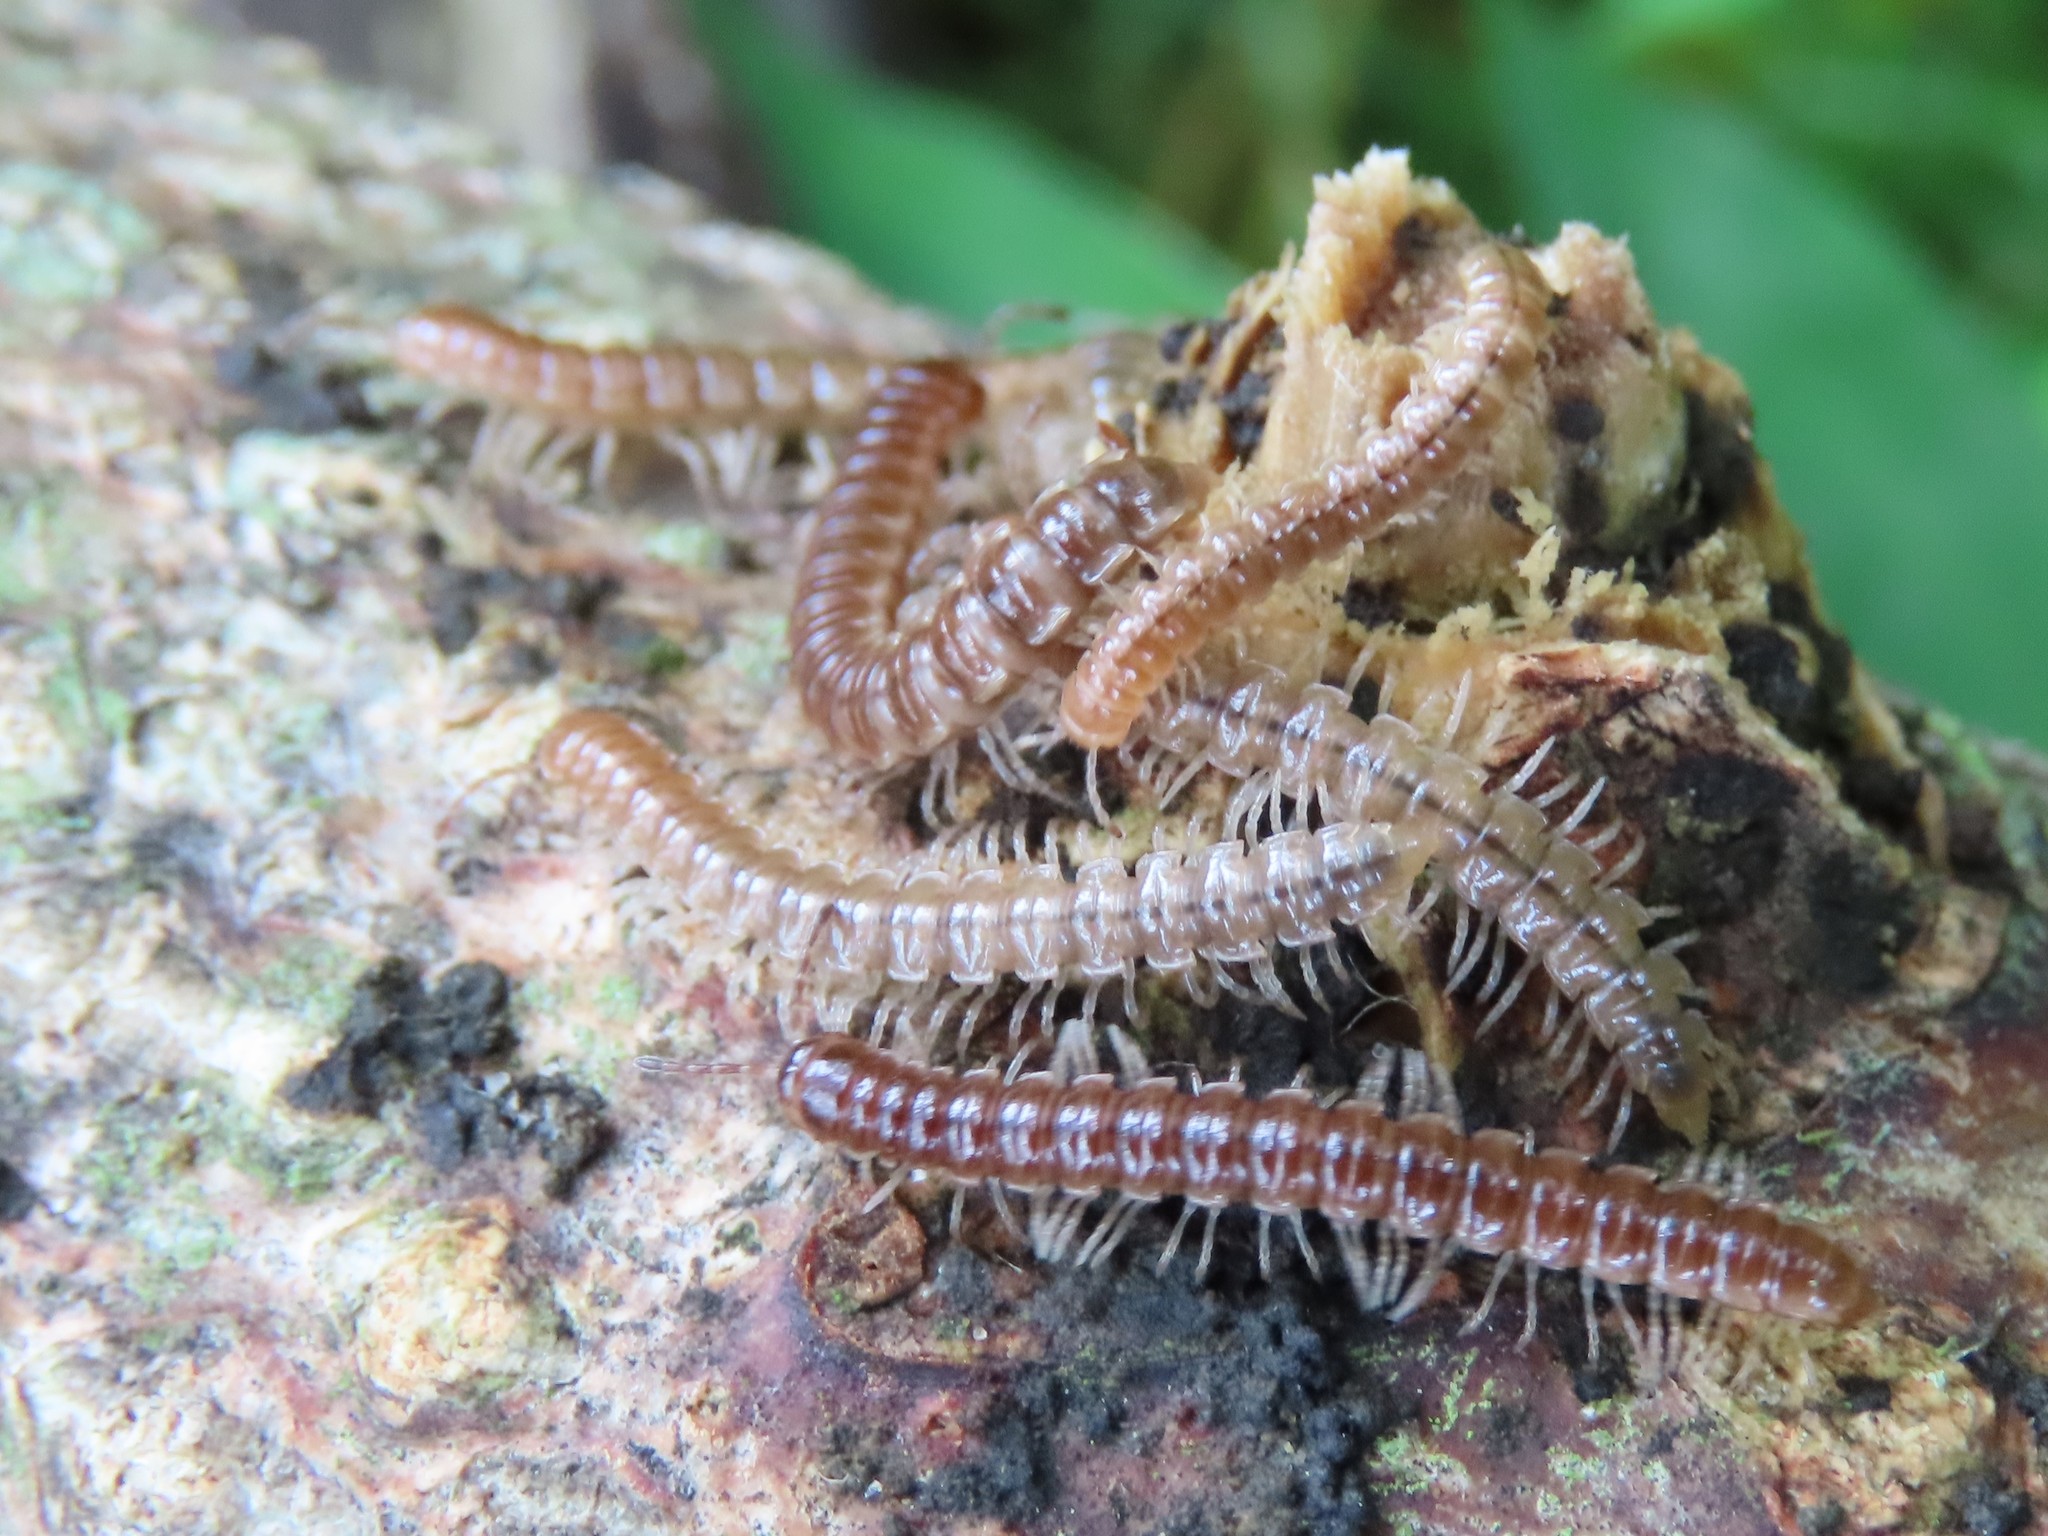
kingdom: Animalia
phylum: Arthropoda
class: Diplopoda
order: Polydesmida
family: Paradoxosomatidae
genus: Oxidus
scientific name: Oxidus gracilis
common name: Greenhouse millipede
